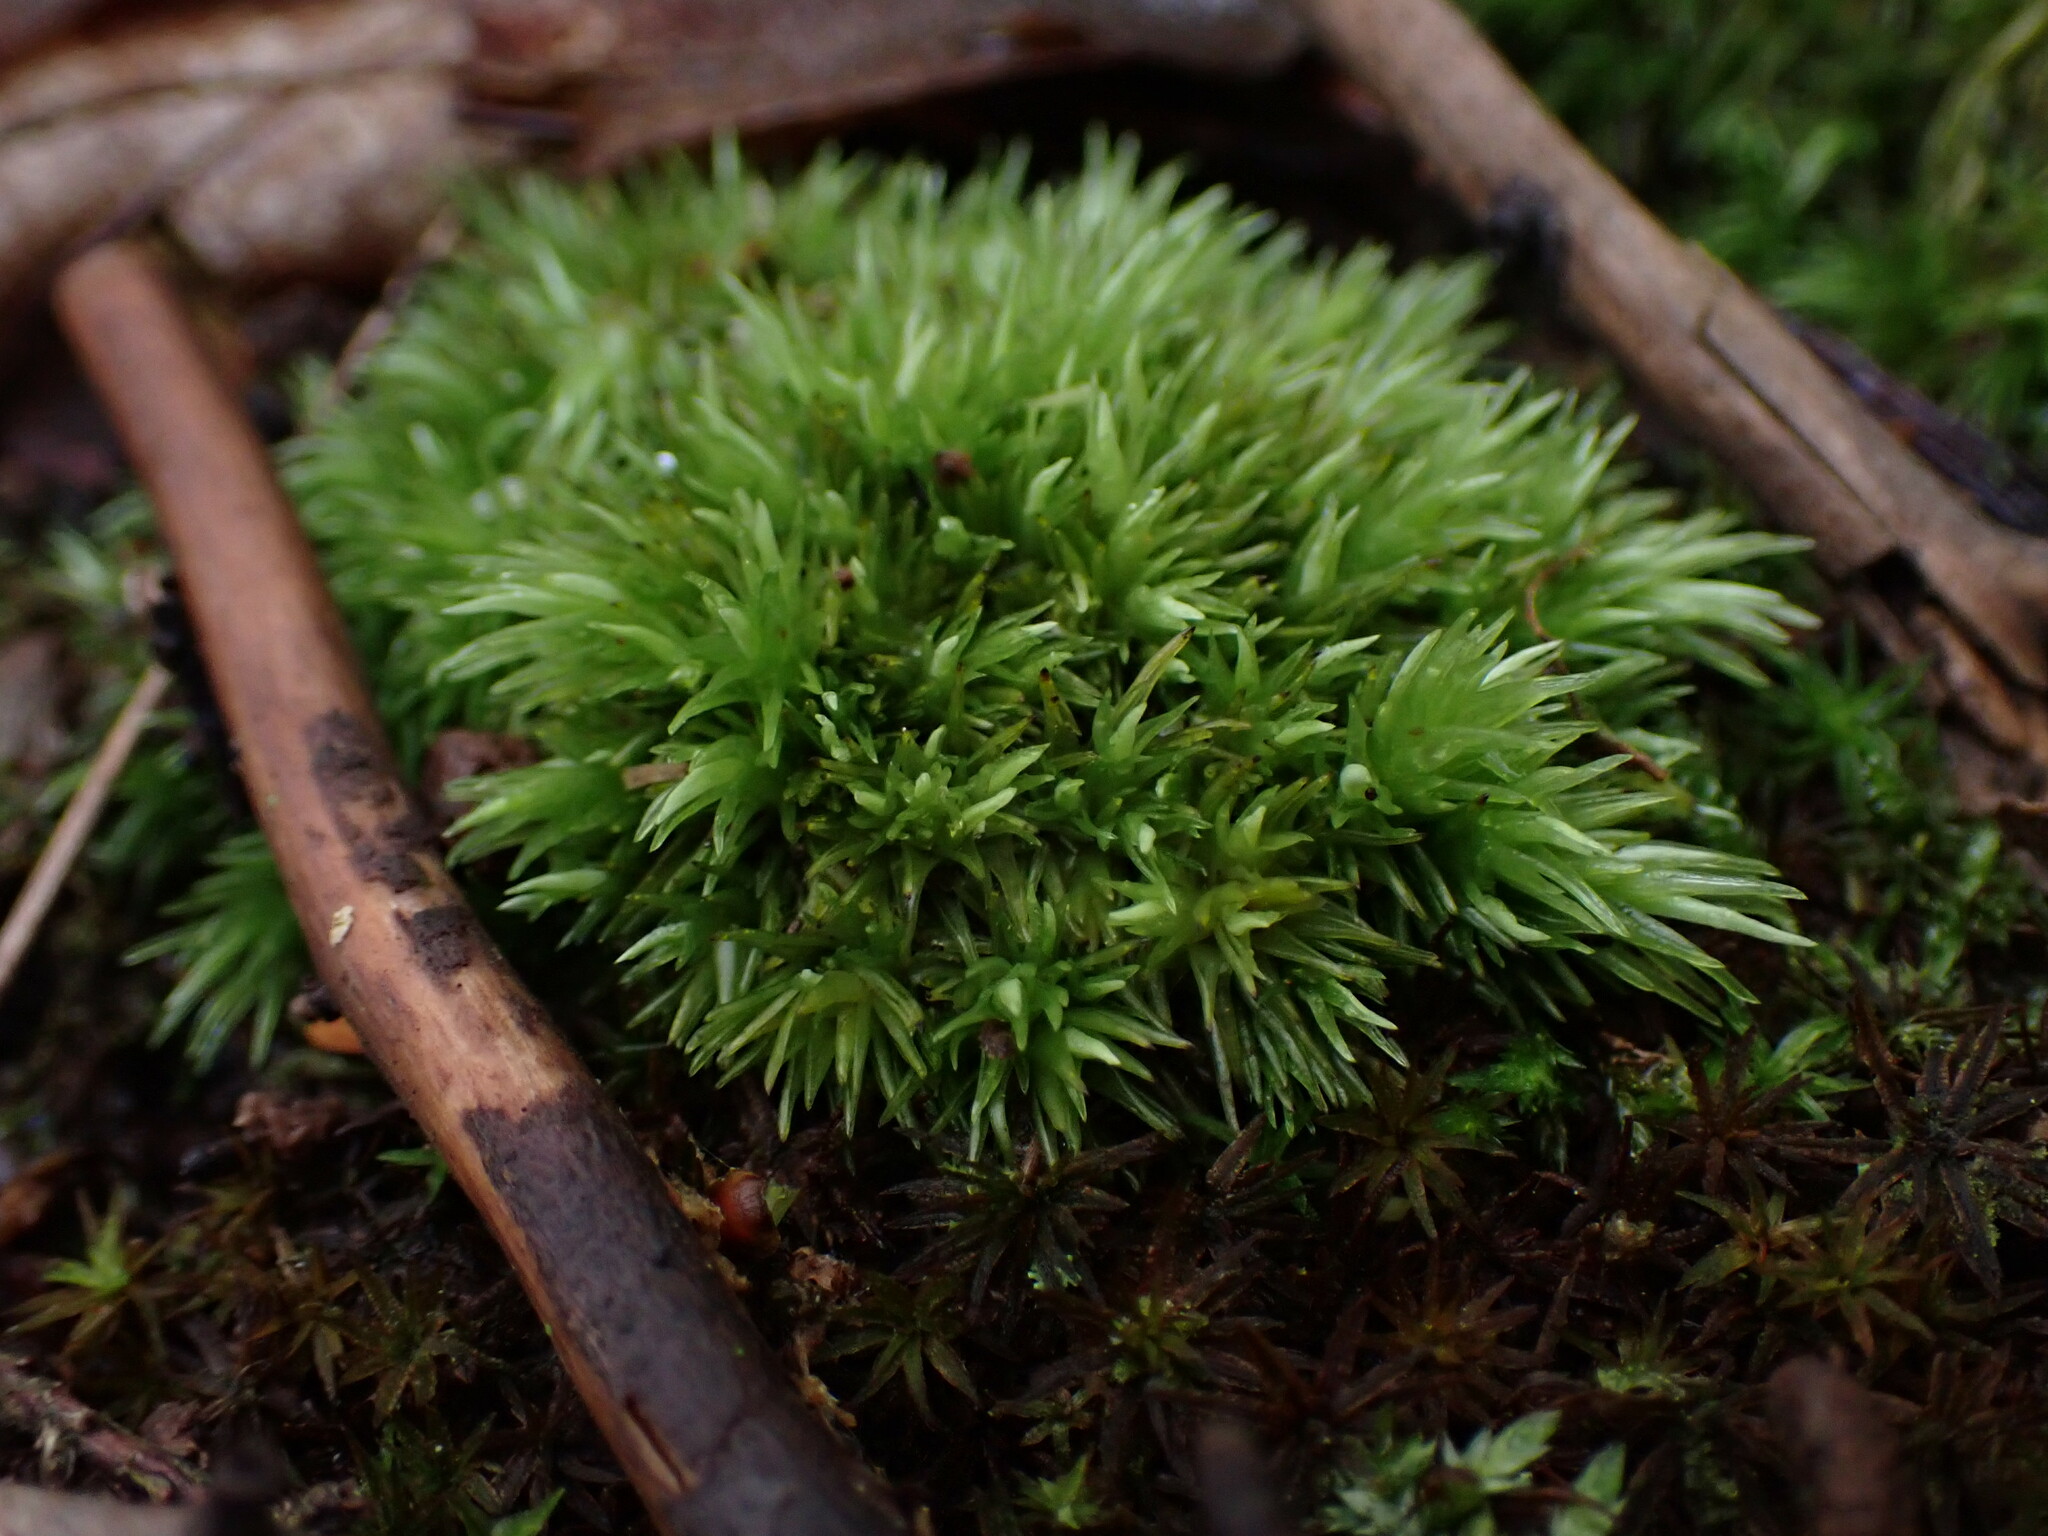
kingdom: Plantae
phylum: Bryophyta
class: Bryopsida
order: Dicranales
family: Leucobryaceae
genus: Leucobryum
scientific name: Leucobryum glaucum
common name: Large white-moss
